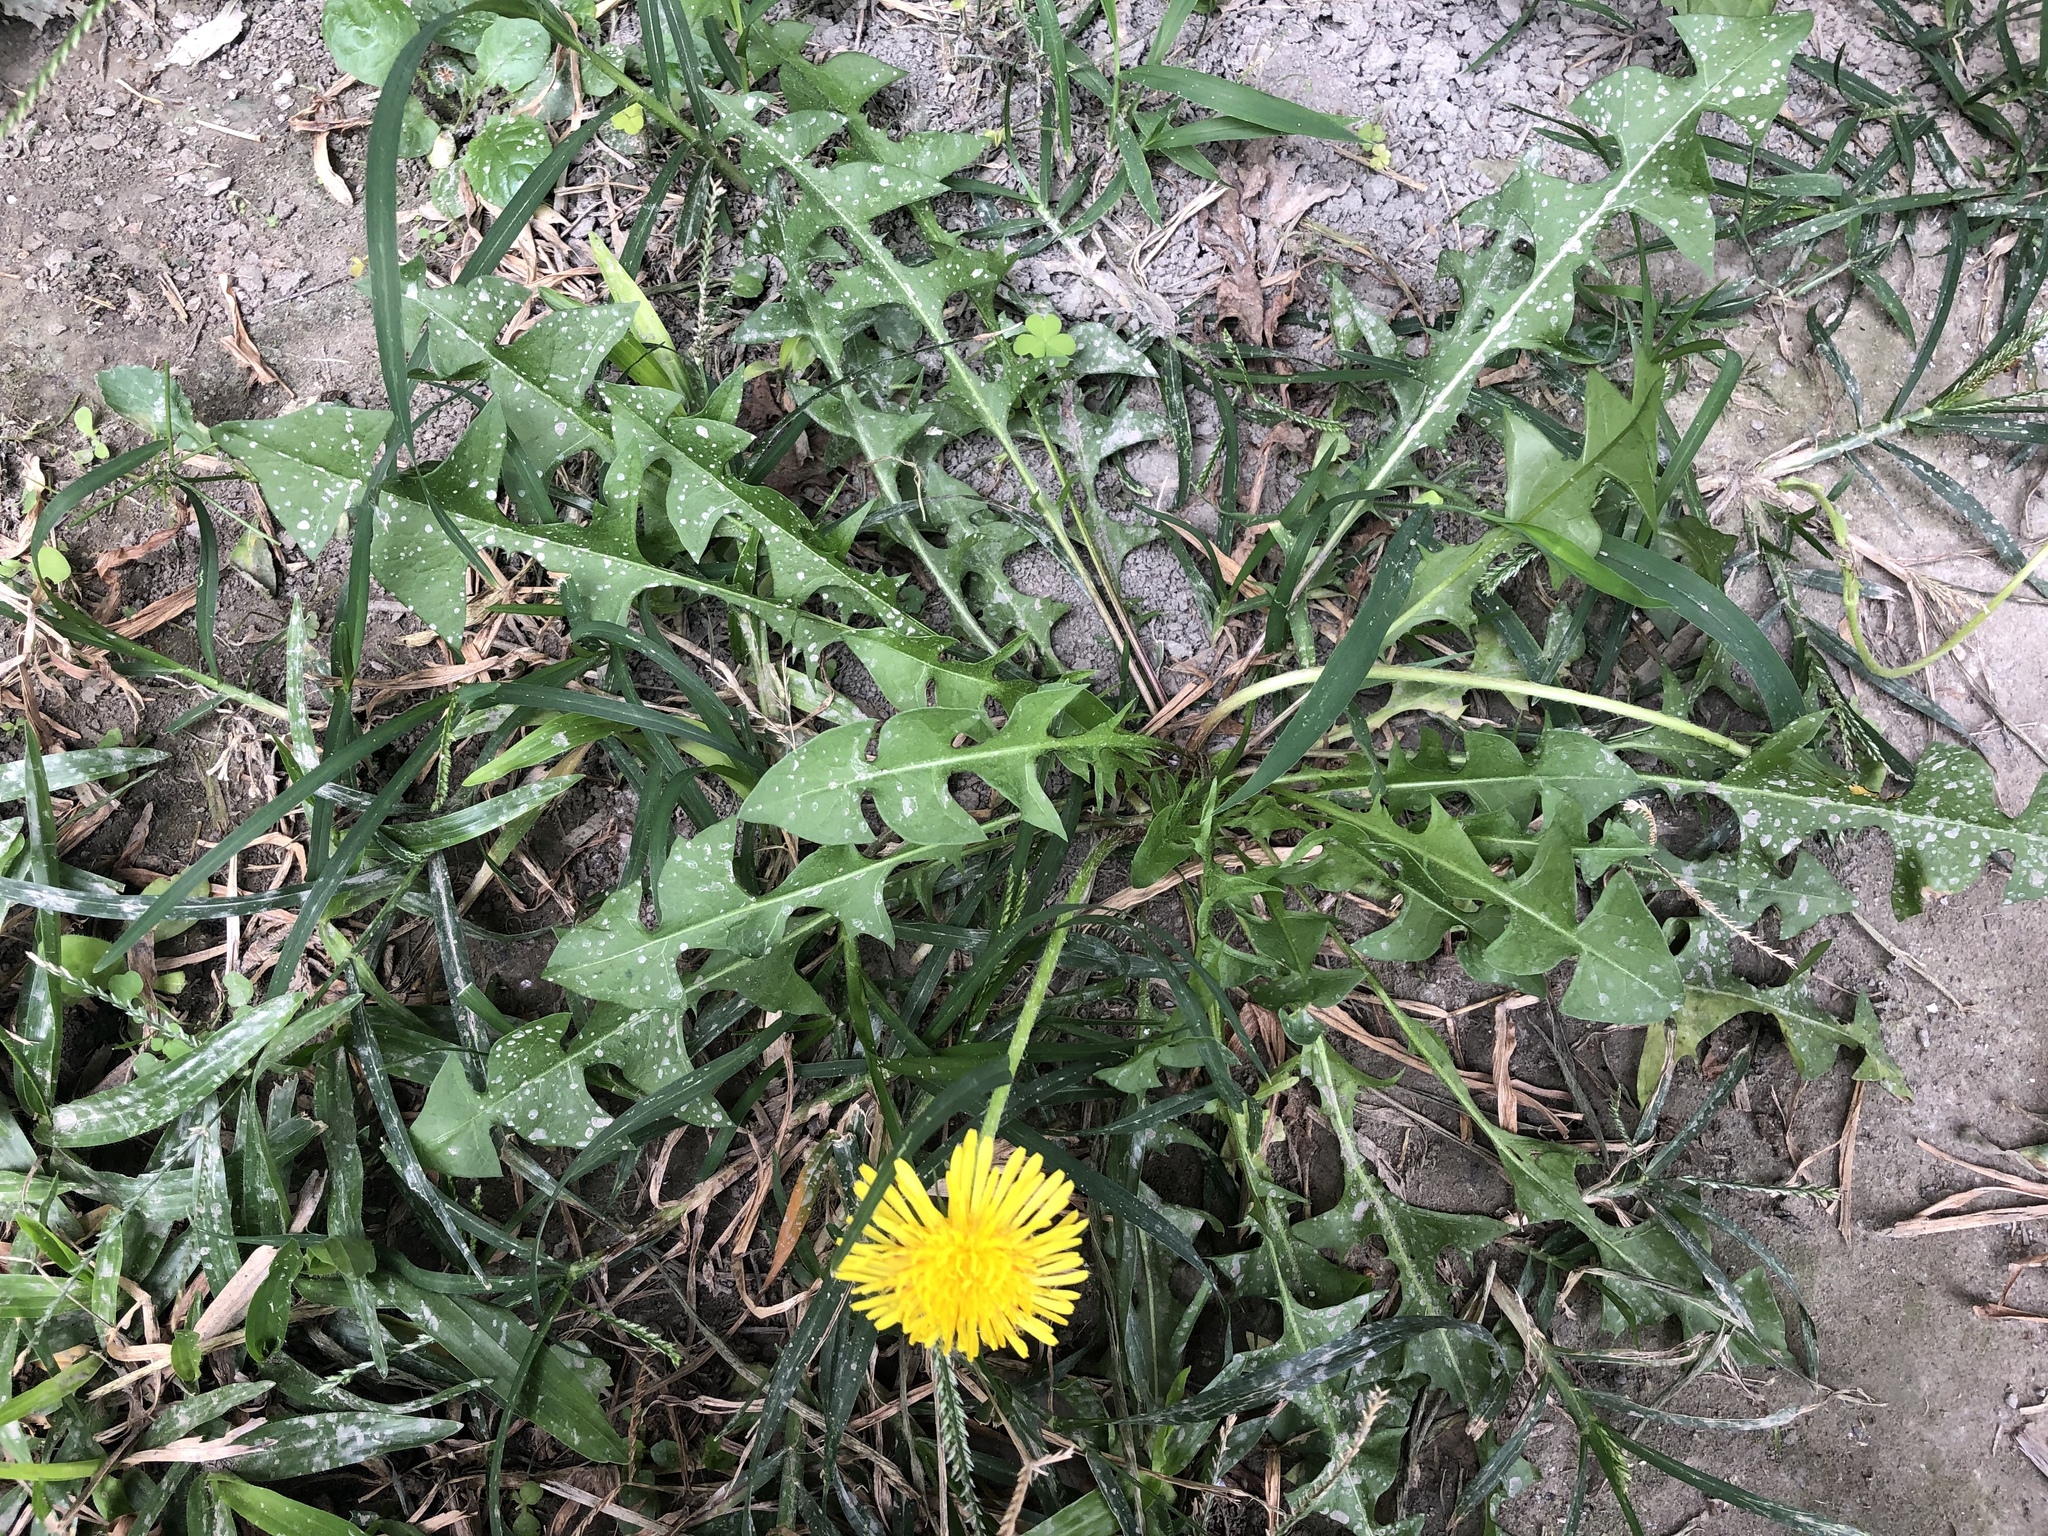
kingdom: Plantae
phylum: Tracheophyta
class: Magnoliopsida
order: Asterales
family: Asteraceae
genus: Taraxacum
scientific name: Taraxacum officinale
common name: Common dandelion
